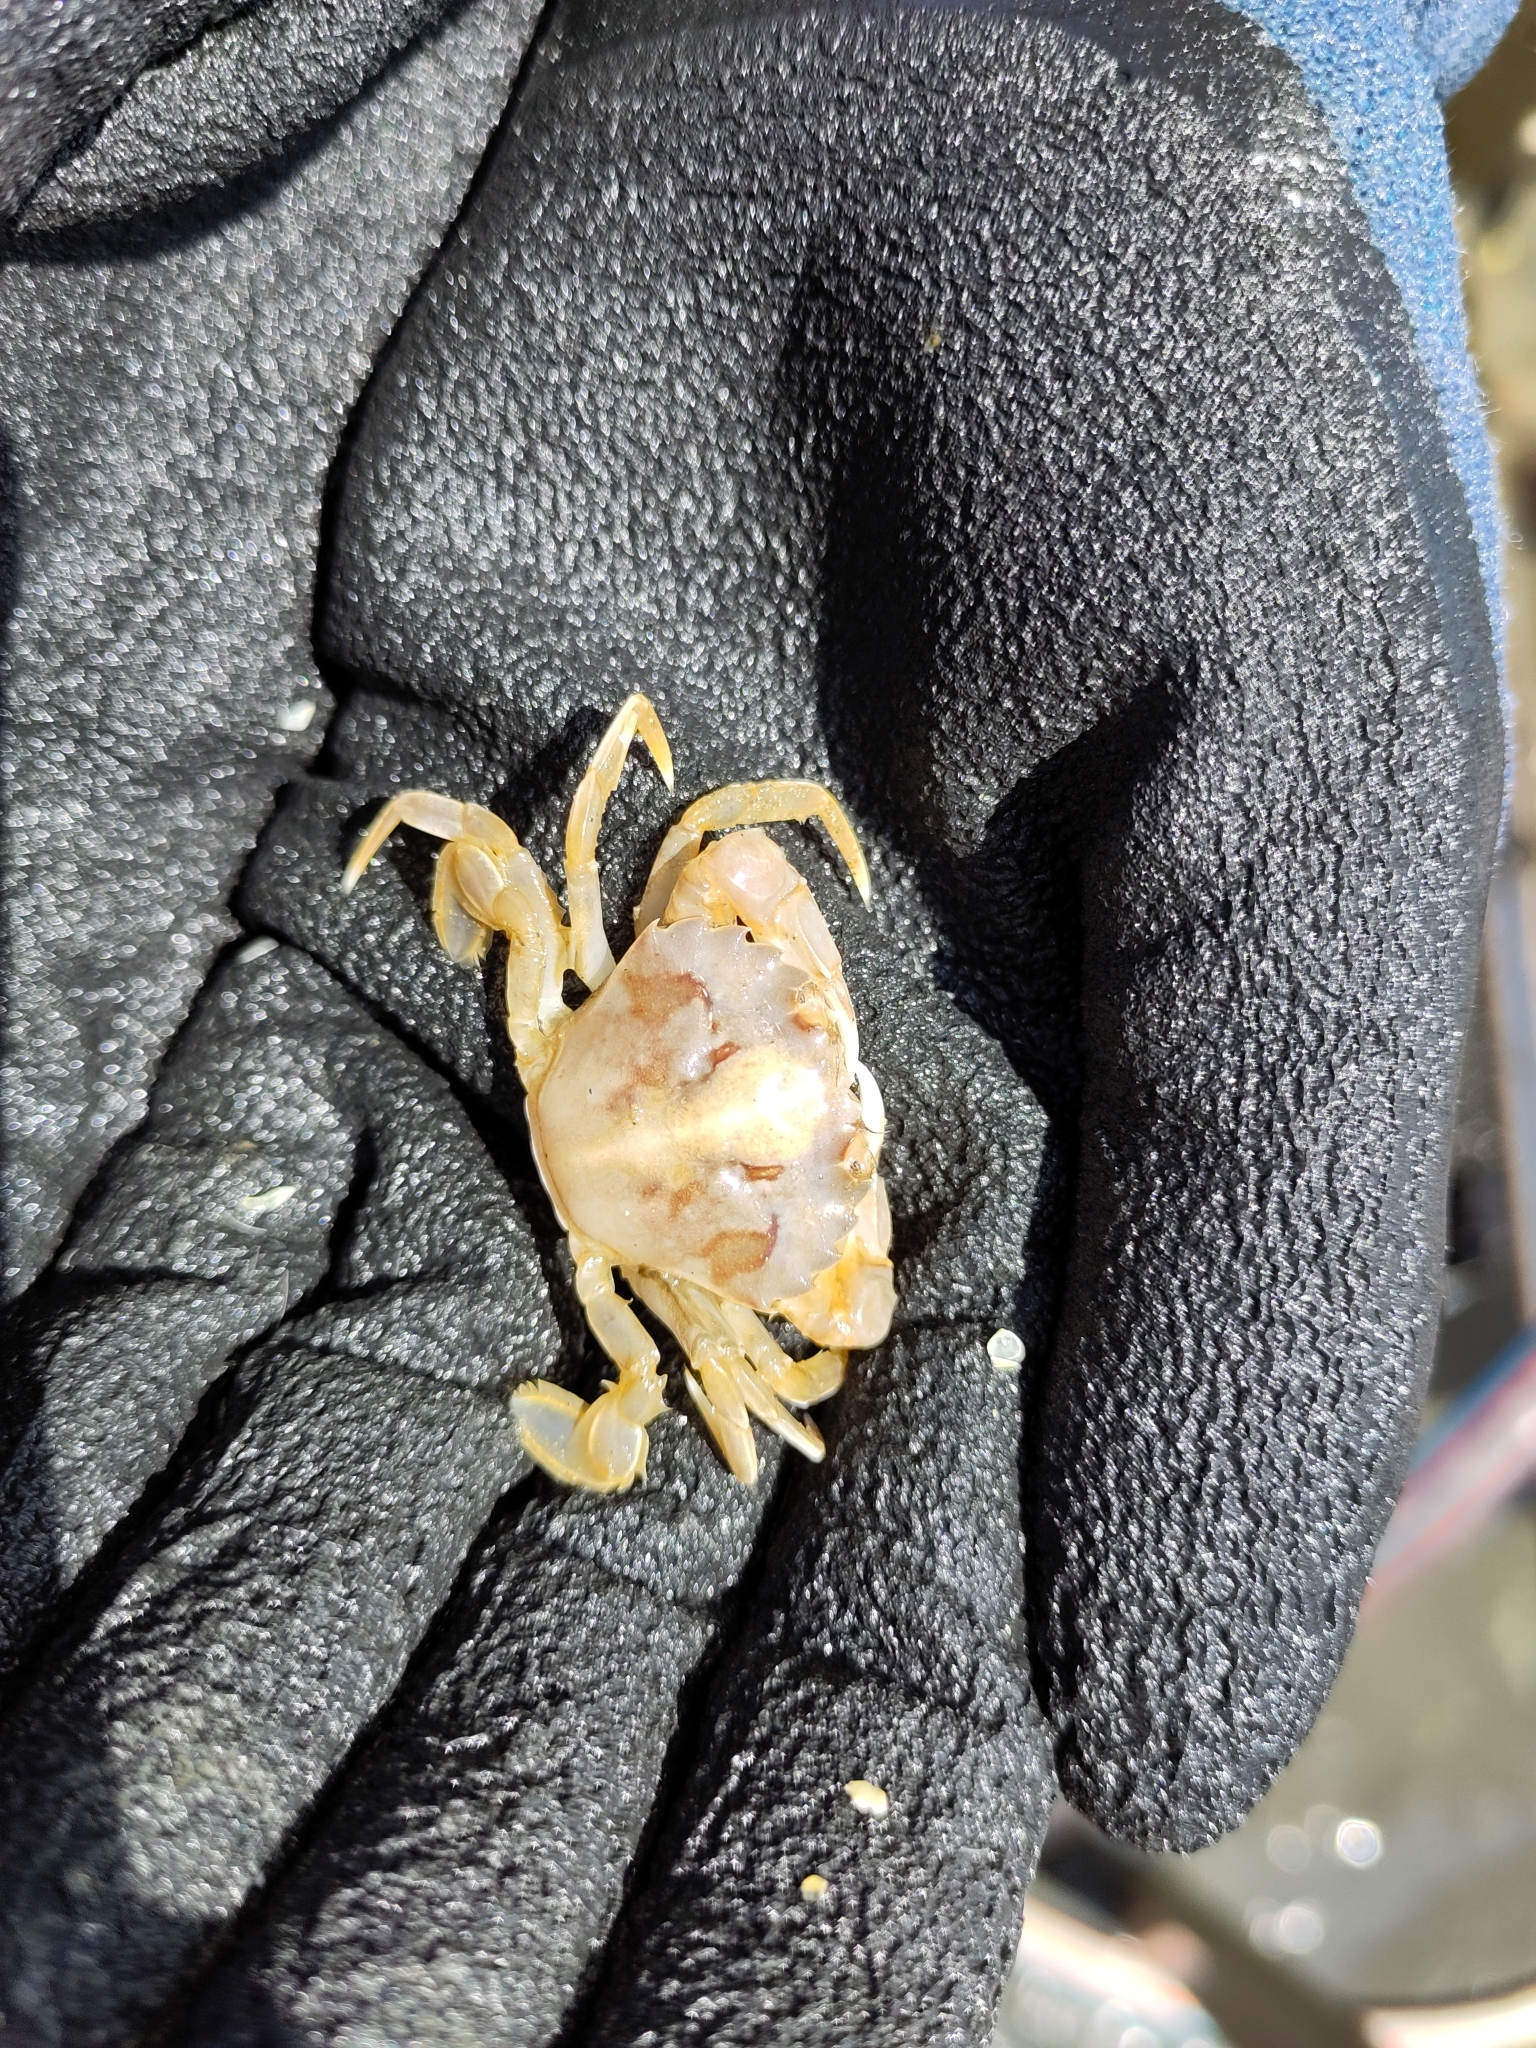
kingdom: Animalia
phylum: Arthropoda
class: Malacostraca
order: Decapoda
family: Polybiidae
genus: Liocarcinus
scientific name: Liocarcinus vernalis
